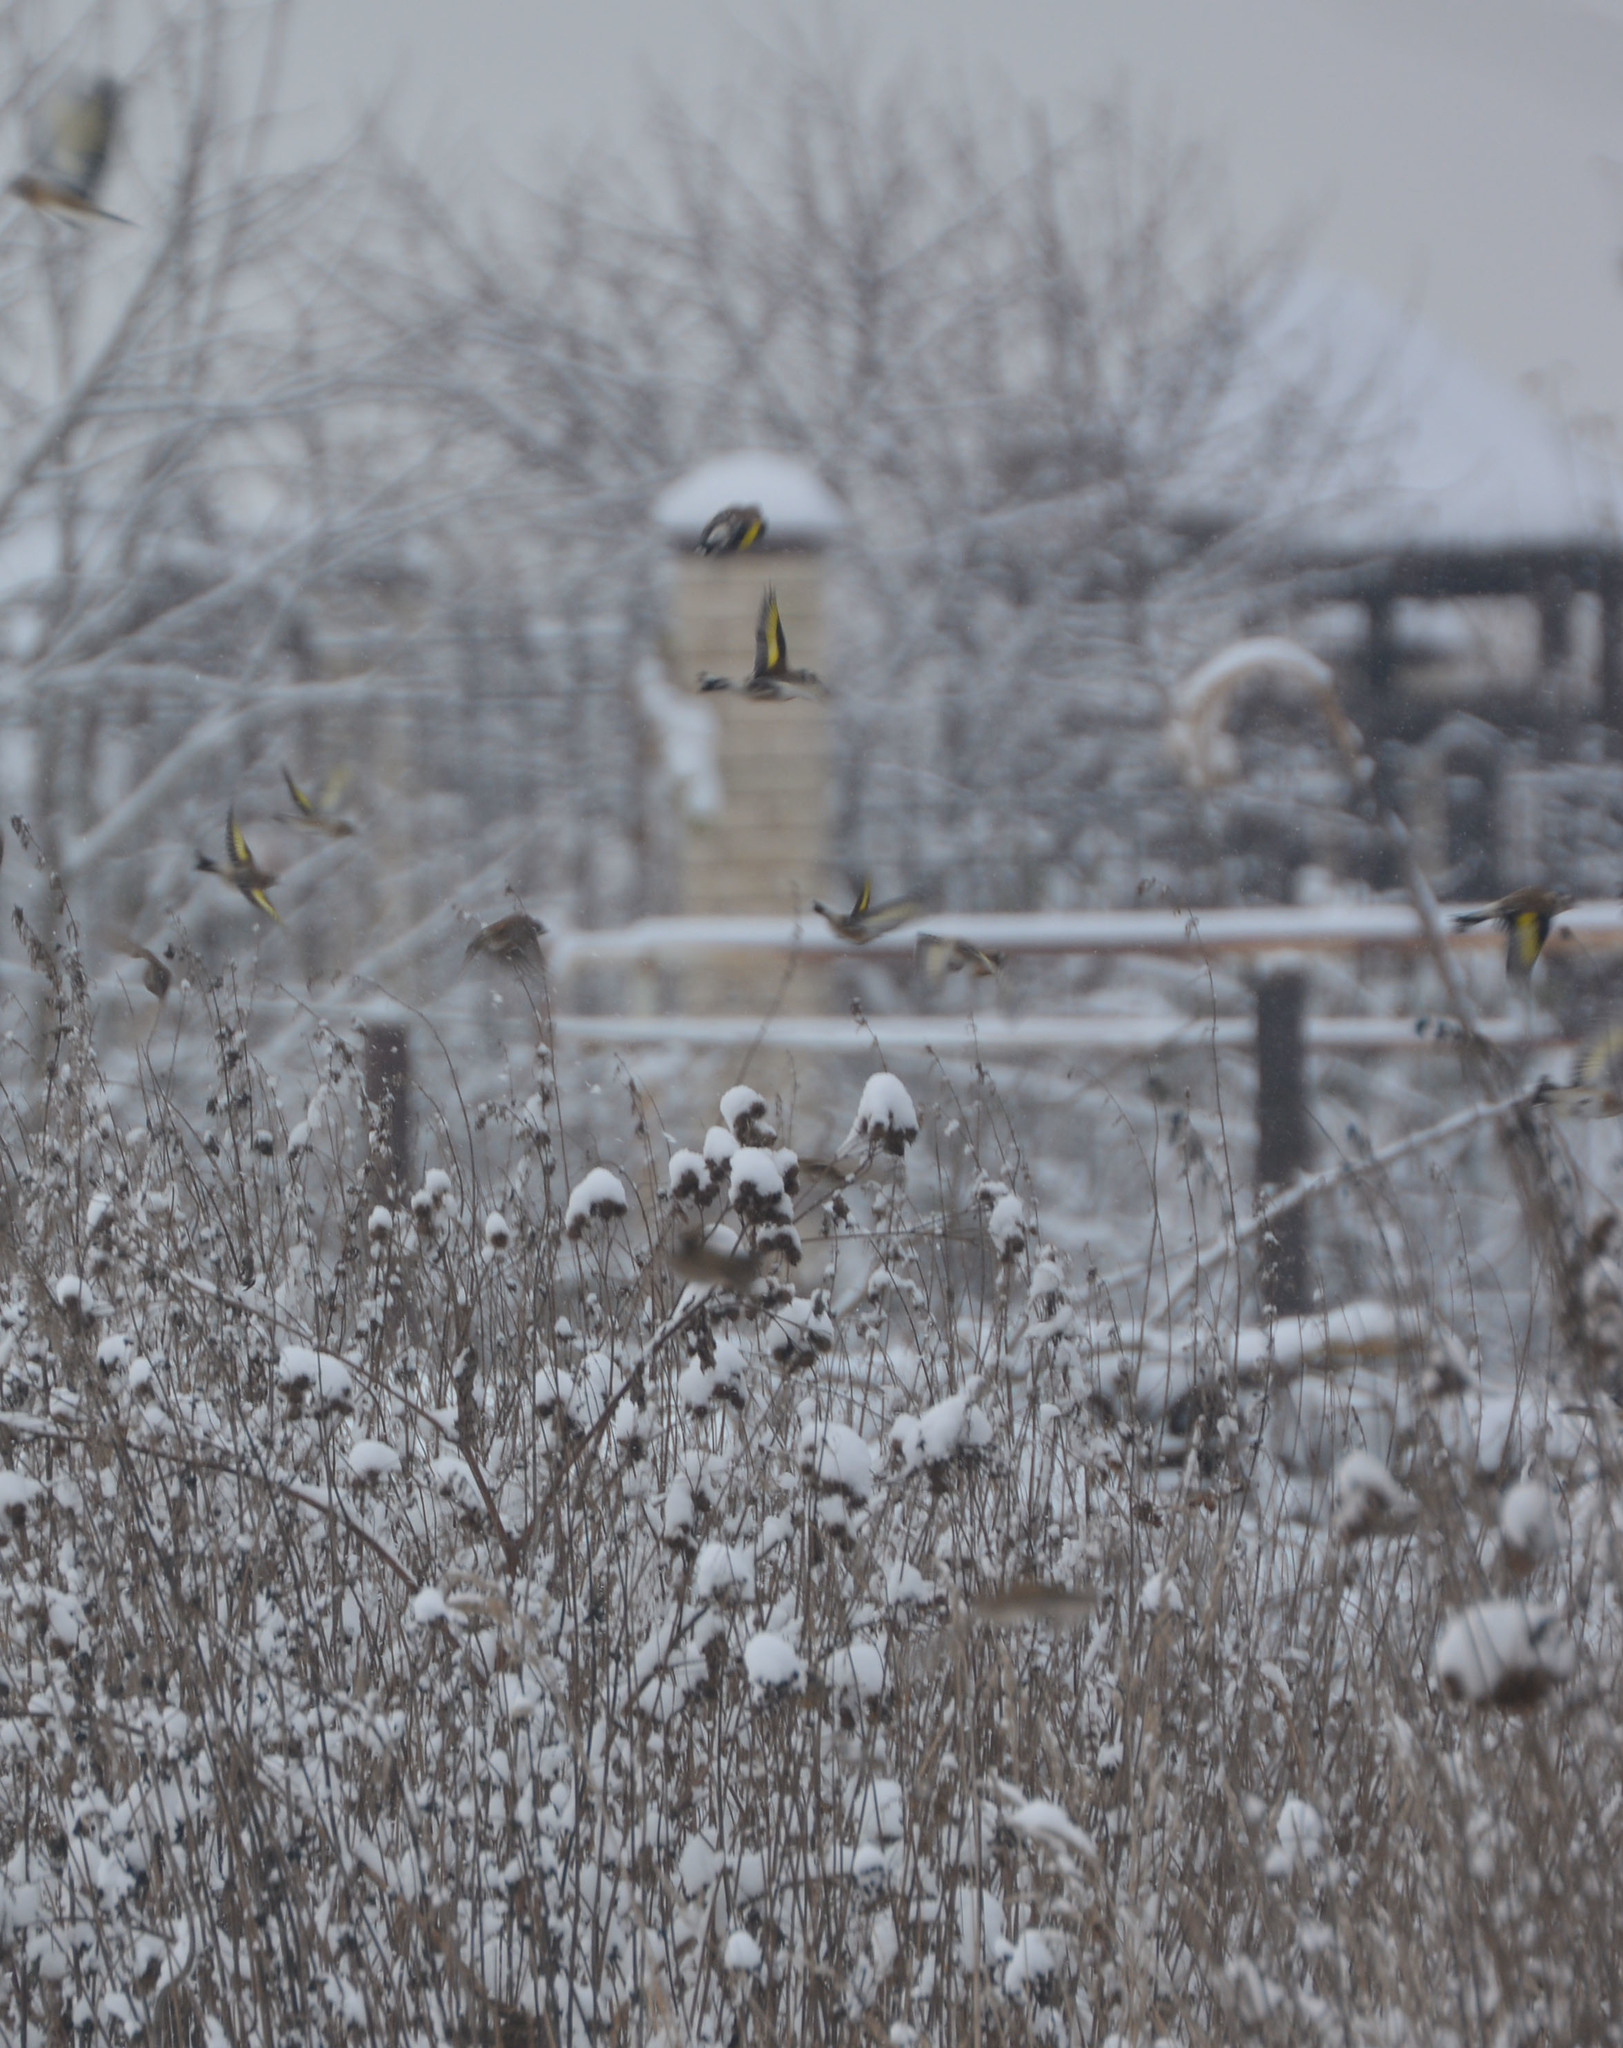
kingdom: Animalia
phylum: Chordata
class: Aves
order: Passeriformes
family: Fringillidae
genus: Carduelis
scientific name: Carduelis carduelis
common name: European goldfinch
